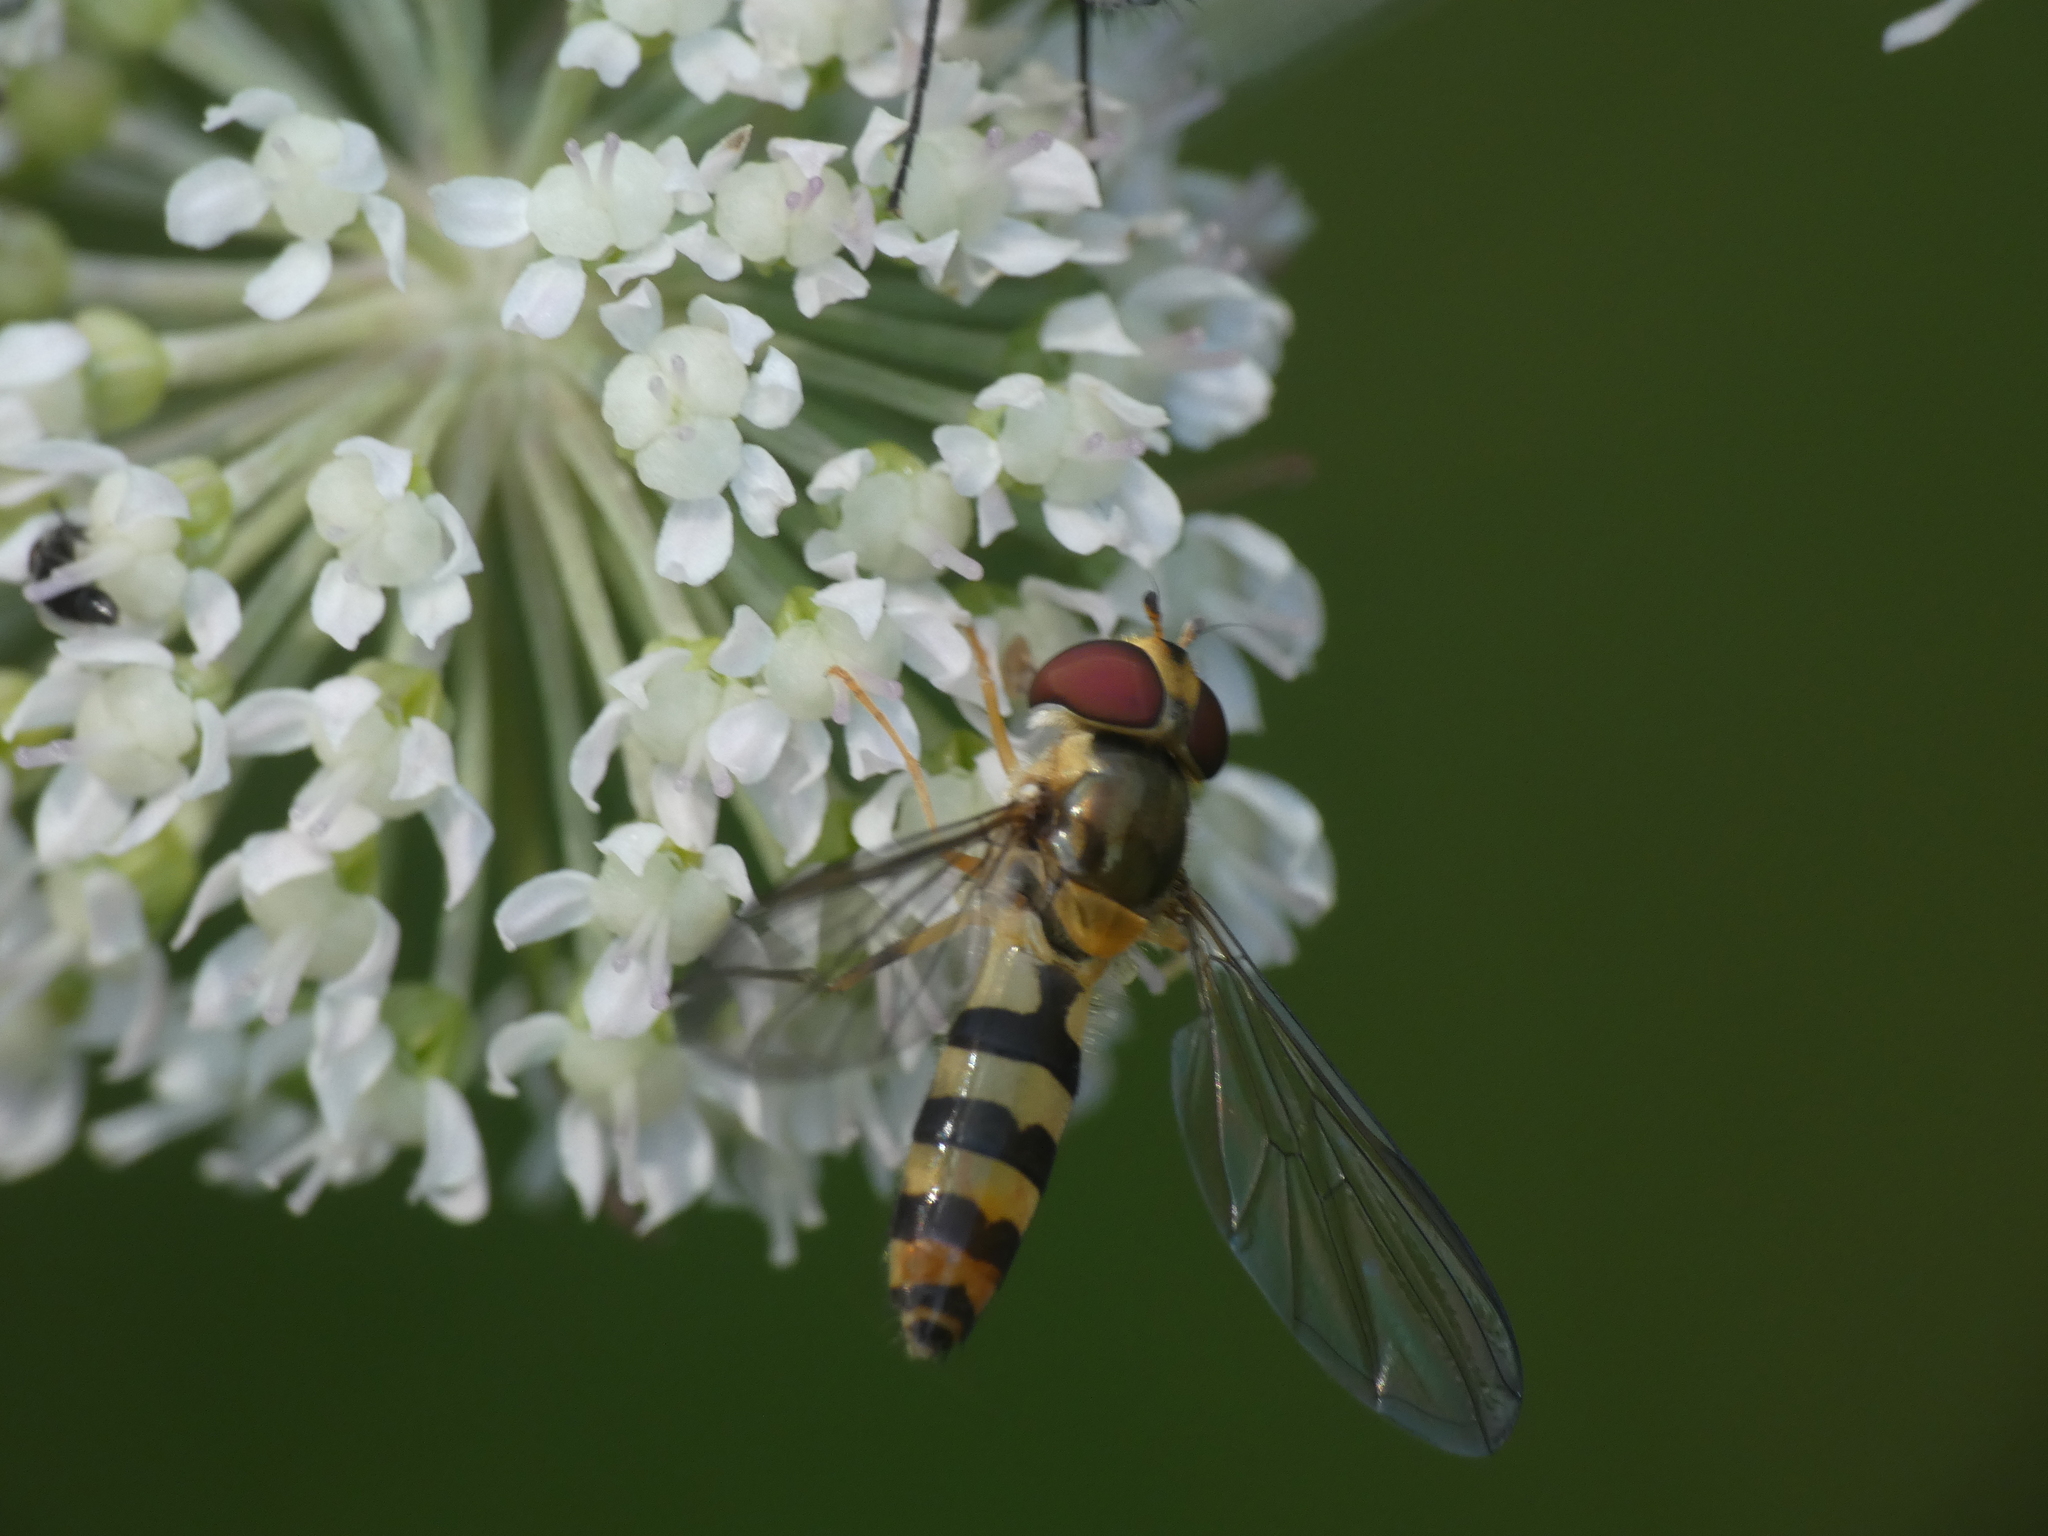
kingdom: Animalia
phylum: Arthropoda
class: Insecta
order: Diptera
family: Syrphidae
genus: Meliscaeva
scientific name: Meliscaeva cinctella
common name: American thintail fly
